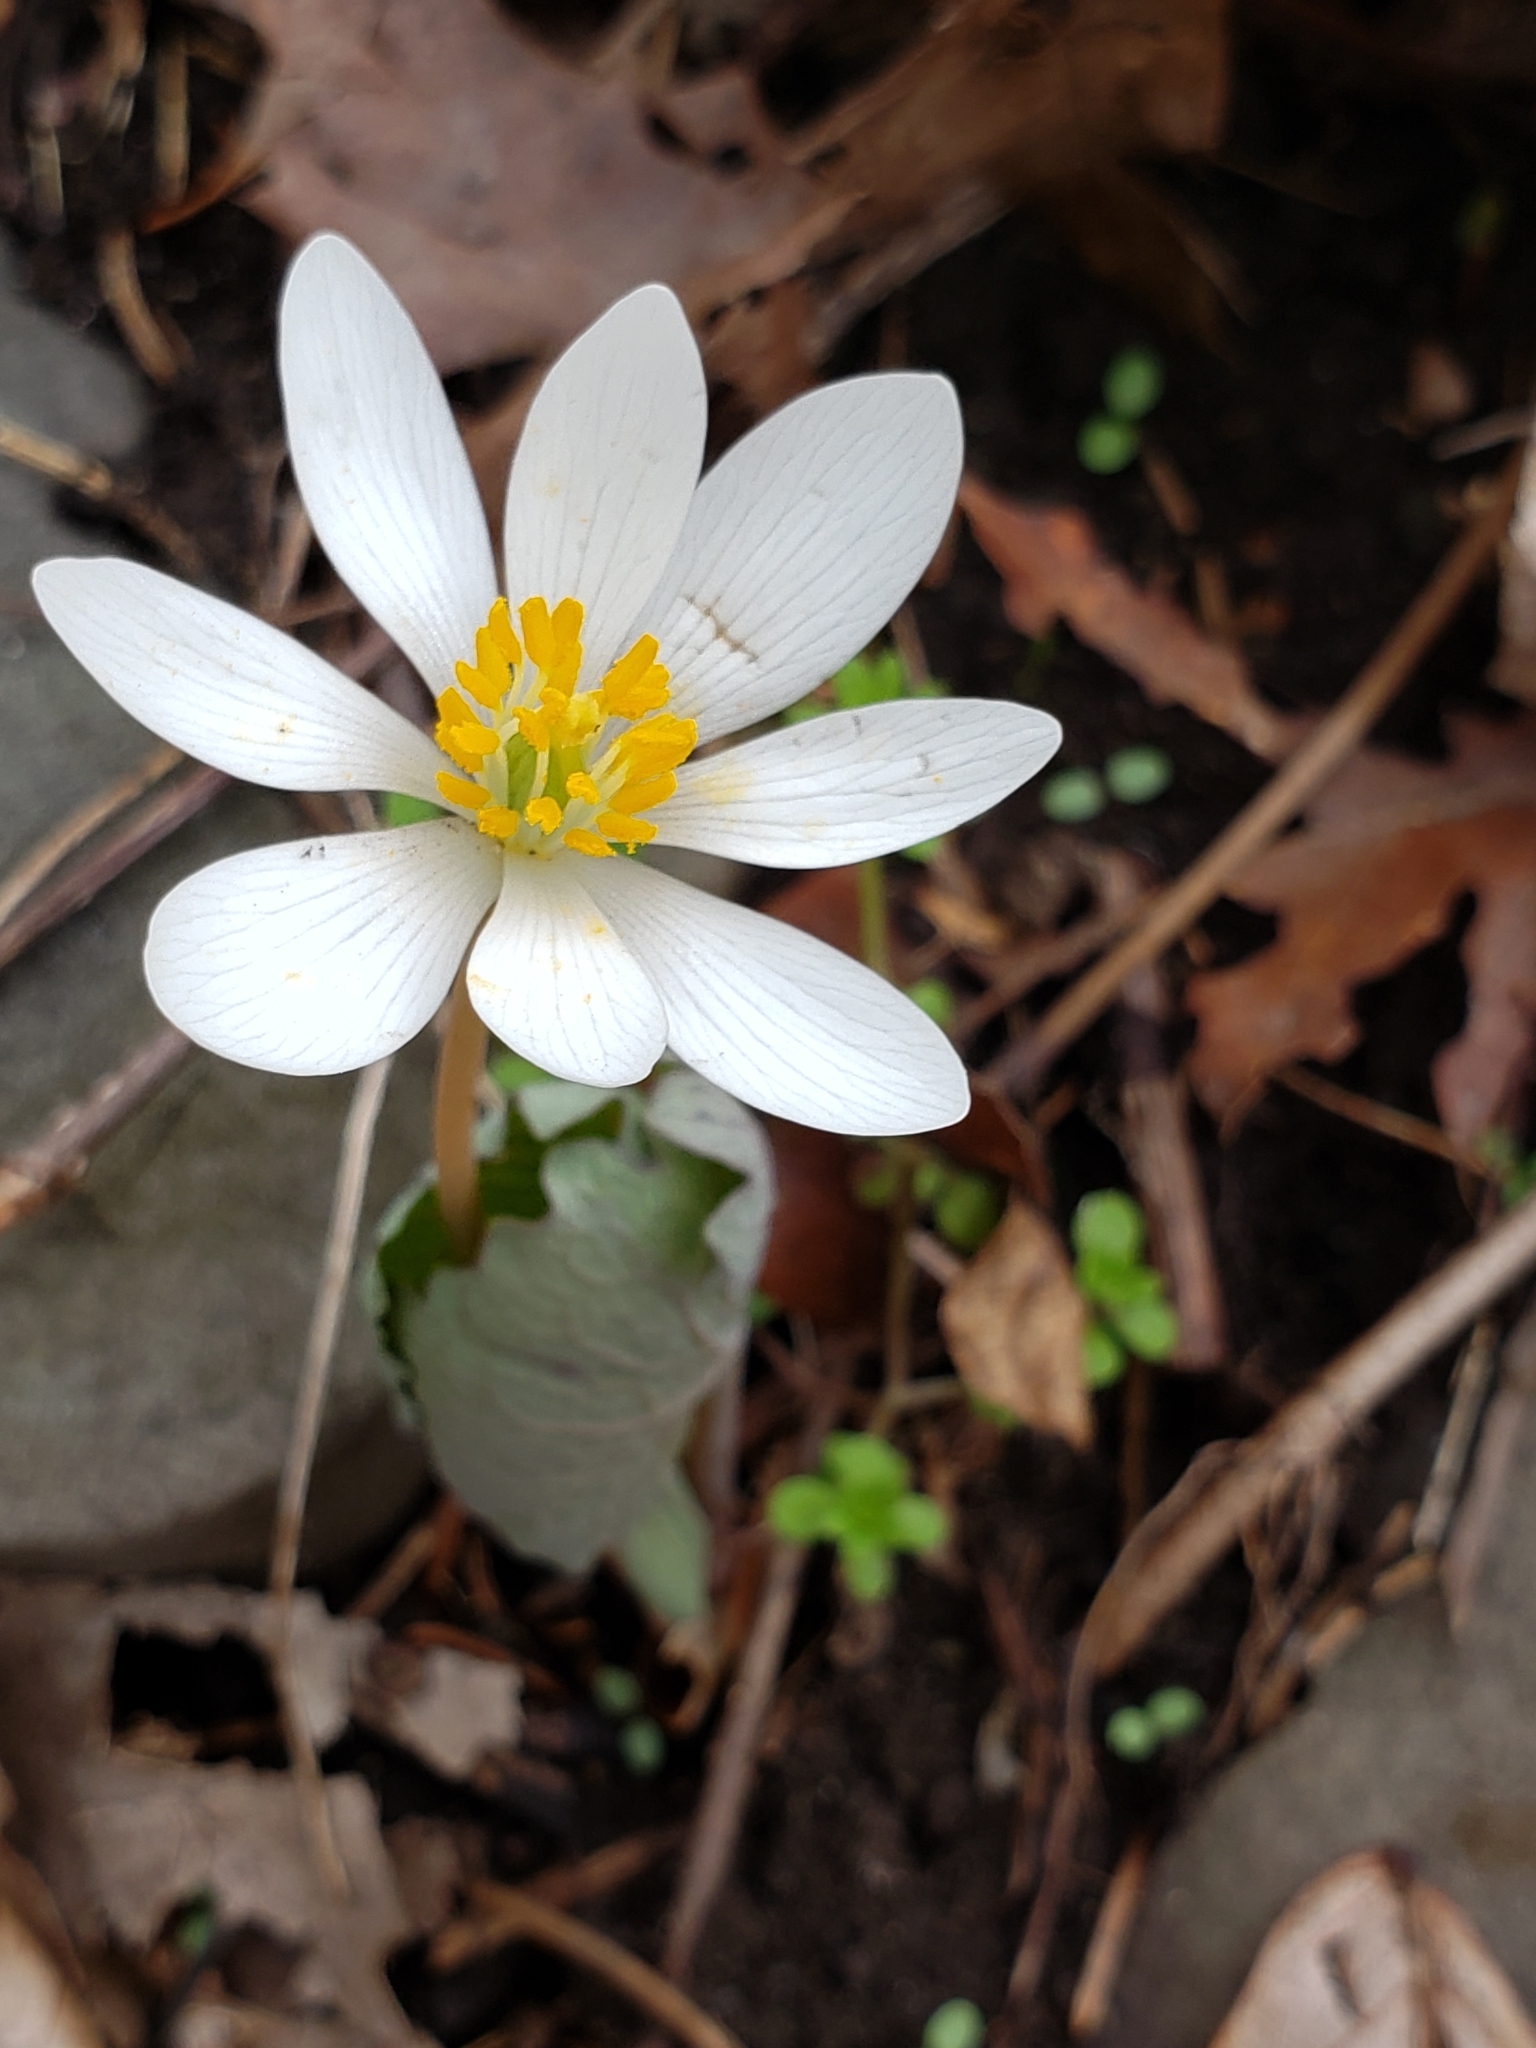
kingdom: Plantae
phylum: Tracheophyta
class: Magnoliopsida
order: Ranunculales
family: Papaveraceae
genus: Sanguinaria
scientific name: Sanguinaria canadensis
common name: Bloodroot
